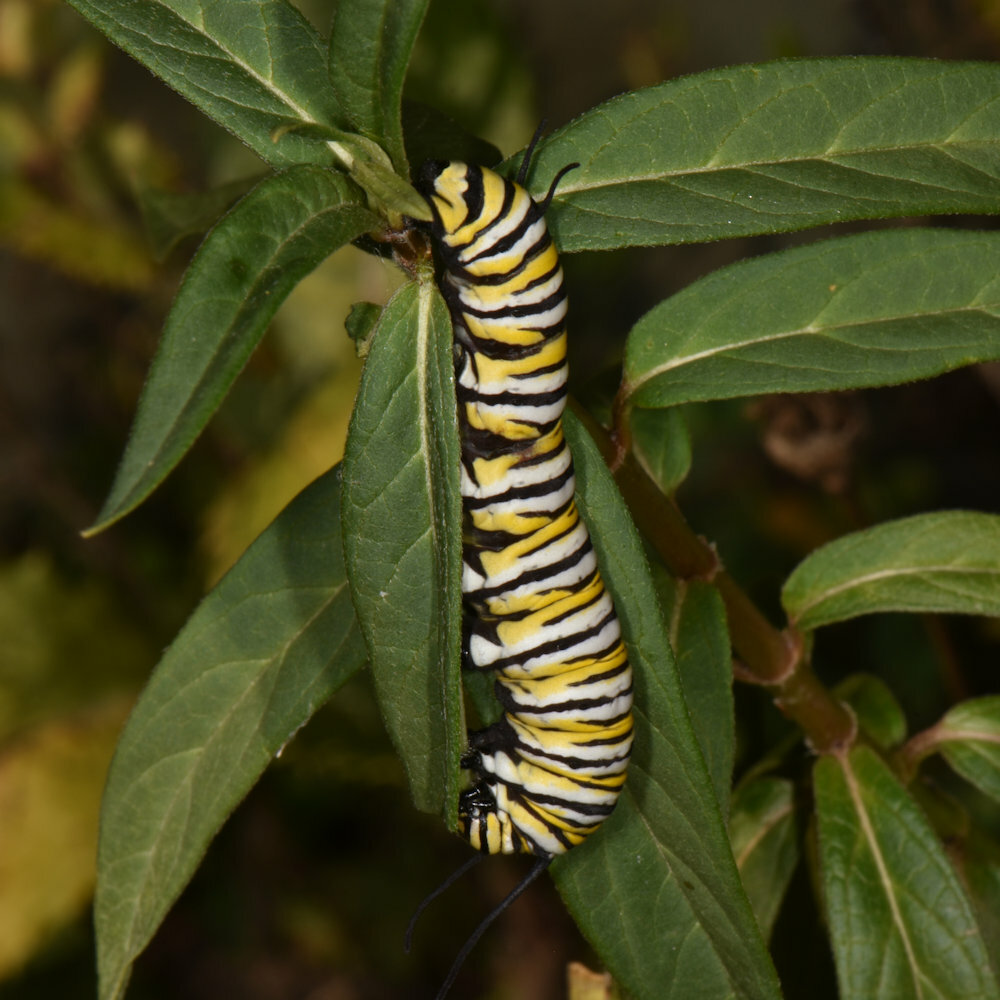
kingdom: Animalia
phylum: Arthropoda
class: Insecta
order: Lepidoptera
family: Nymphalidae
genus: Danaus
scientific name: Danaus plexippus
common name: Monarch
